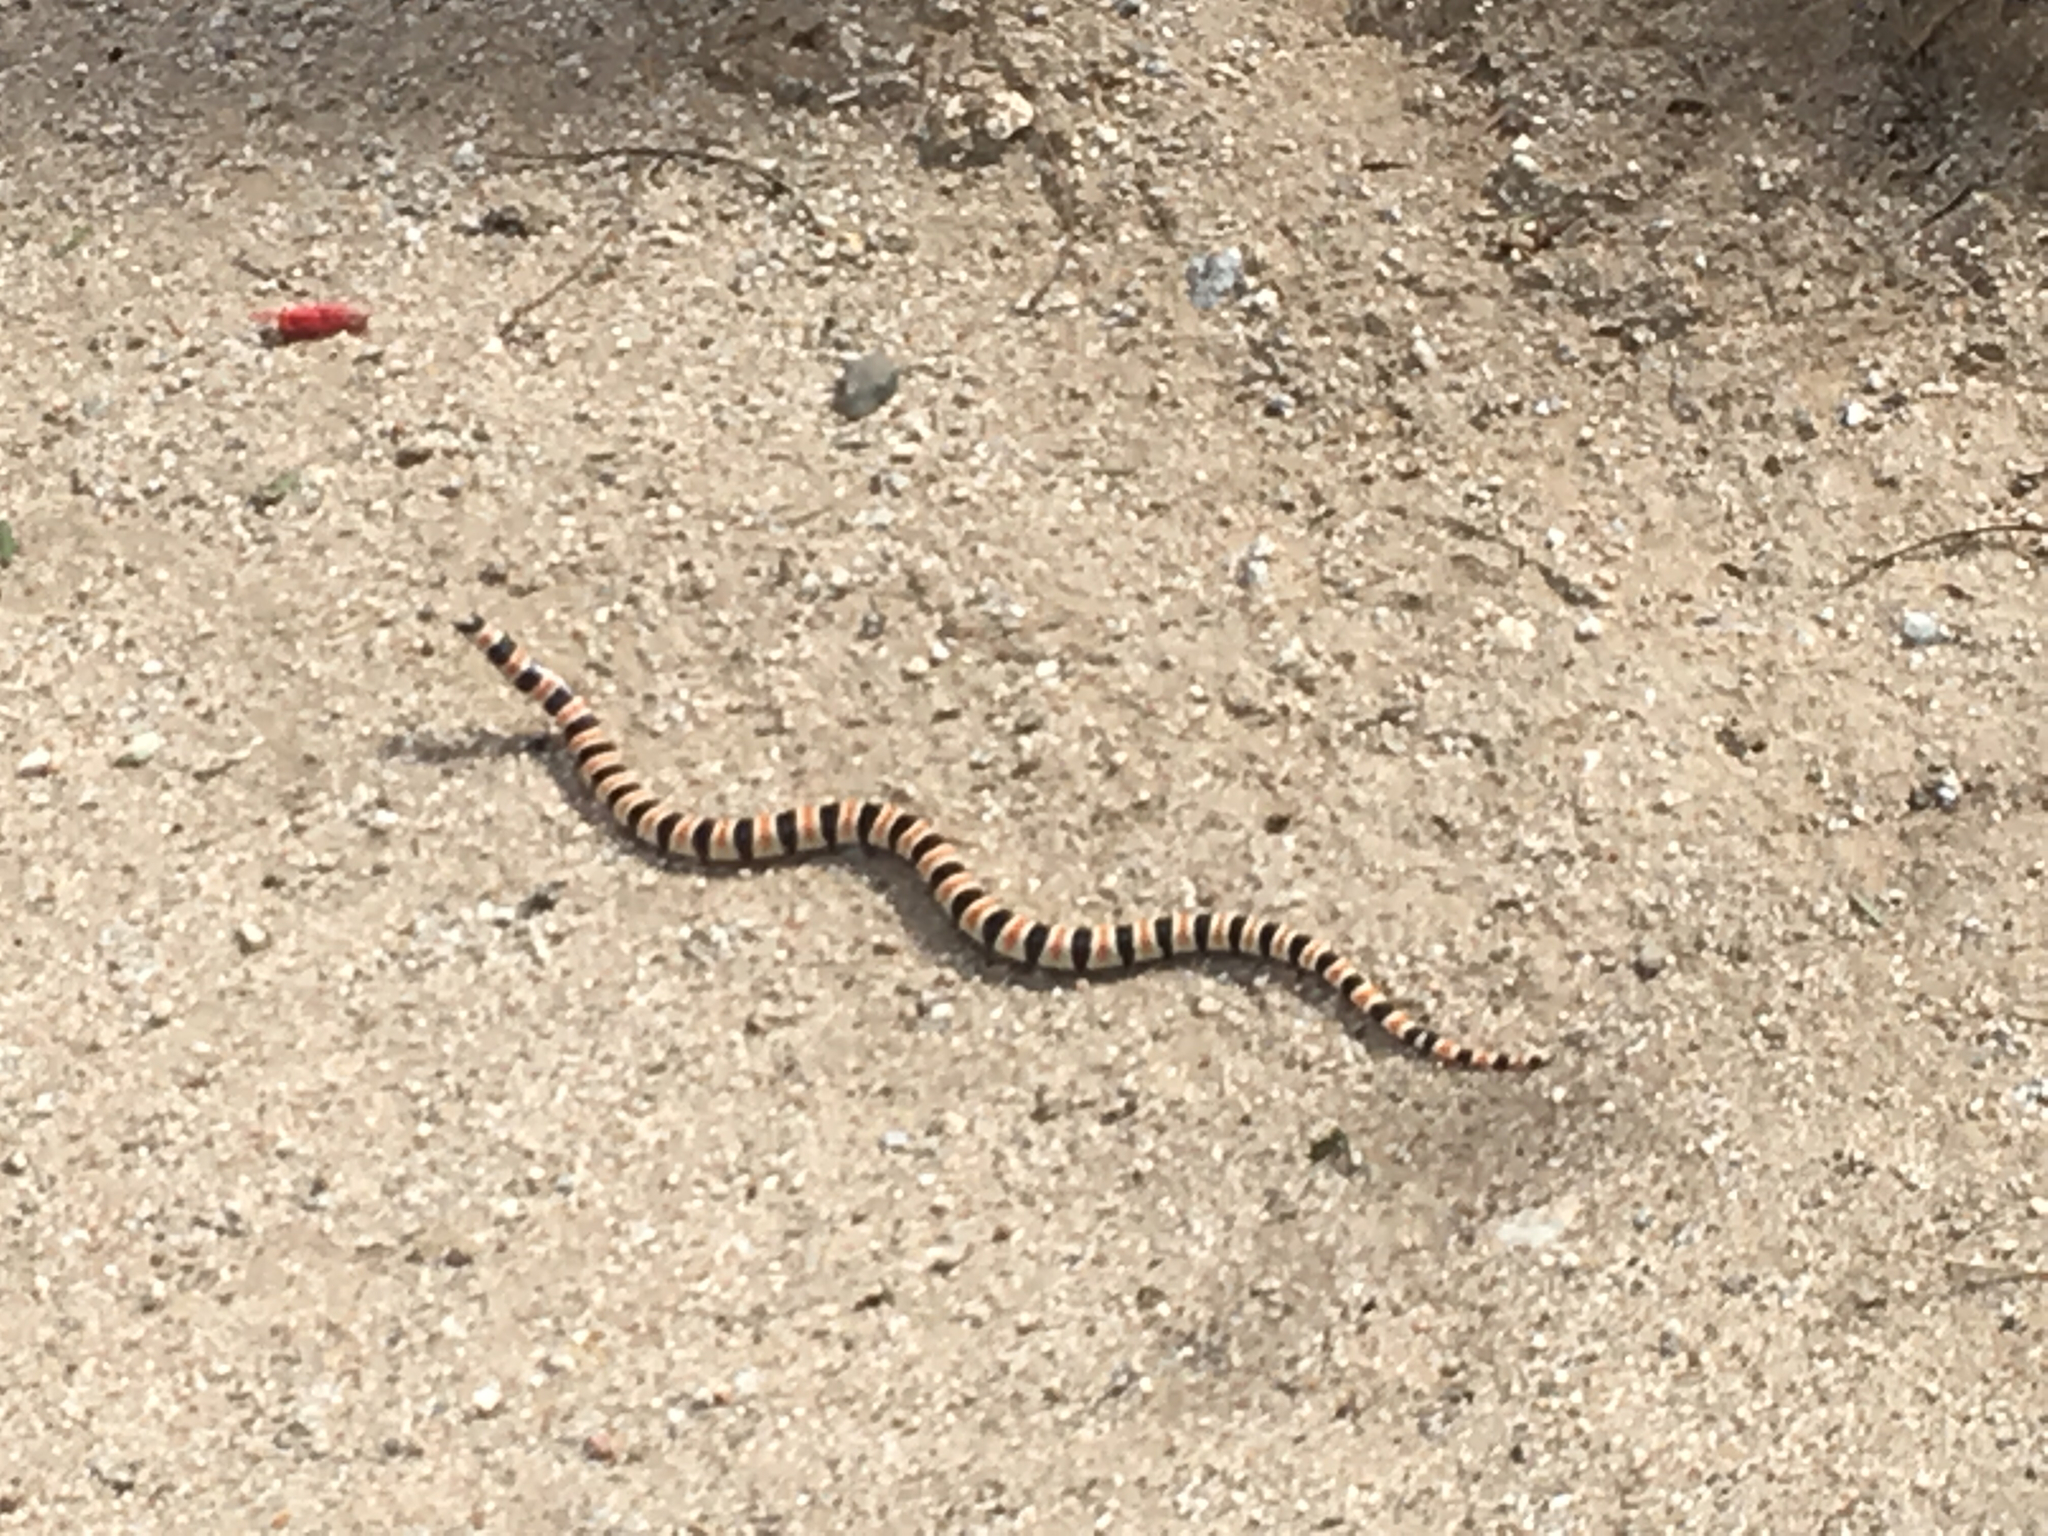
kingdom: Animalia
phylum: Chordata
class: Squamata
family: Colubridae
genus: Sonora
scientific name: Sonora annulata
